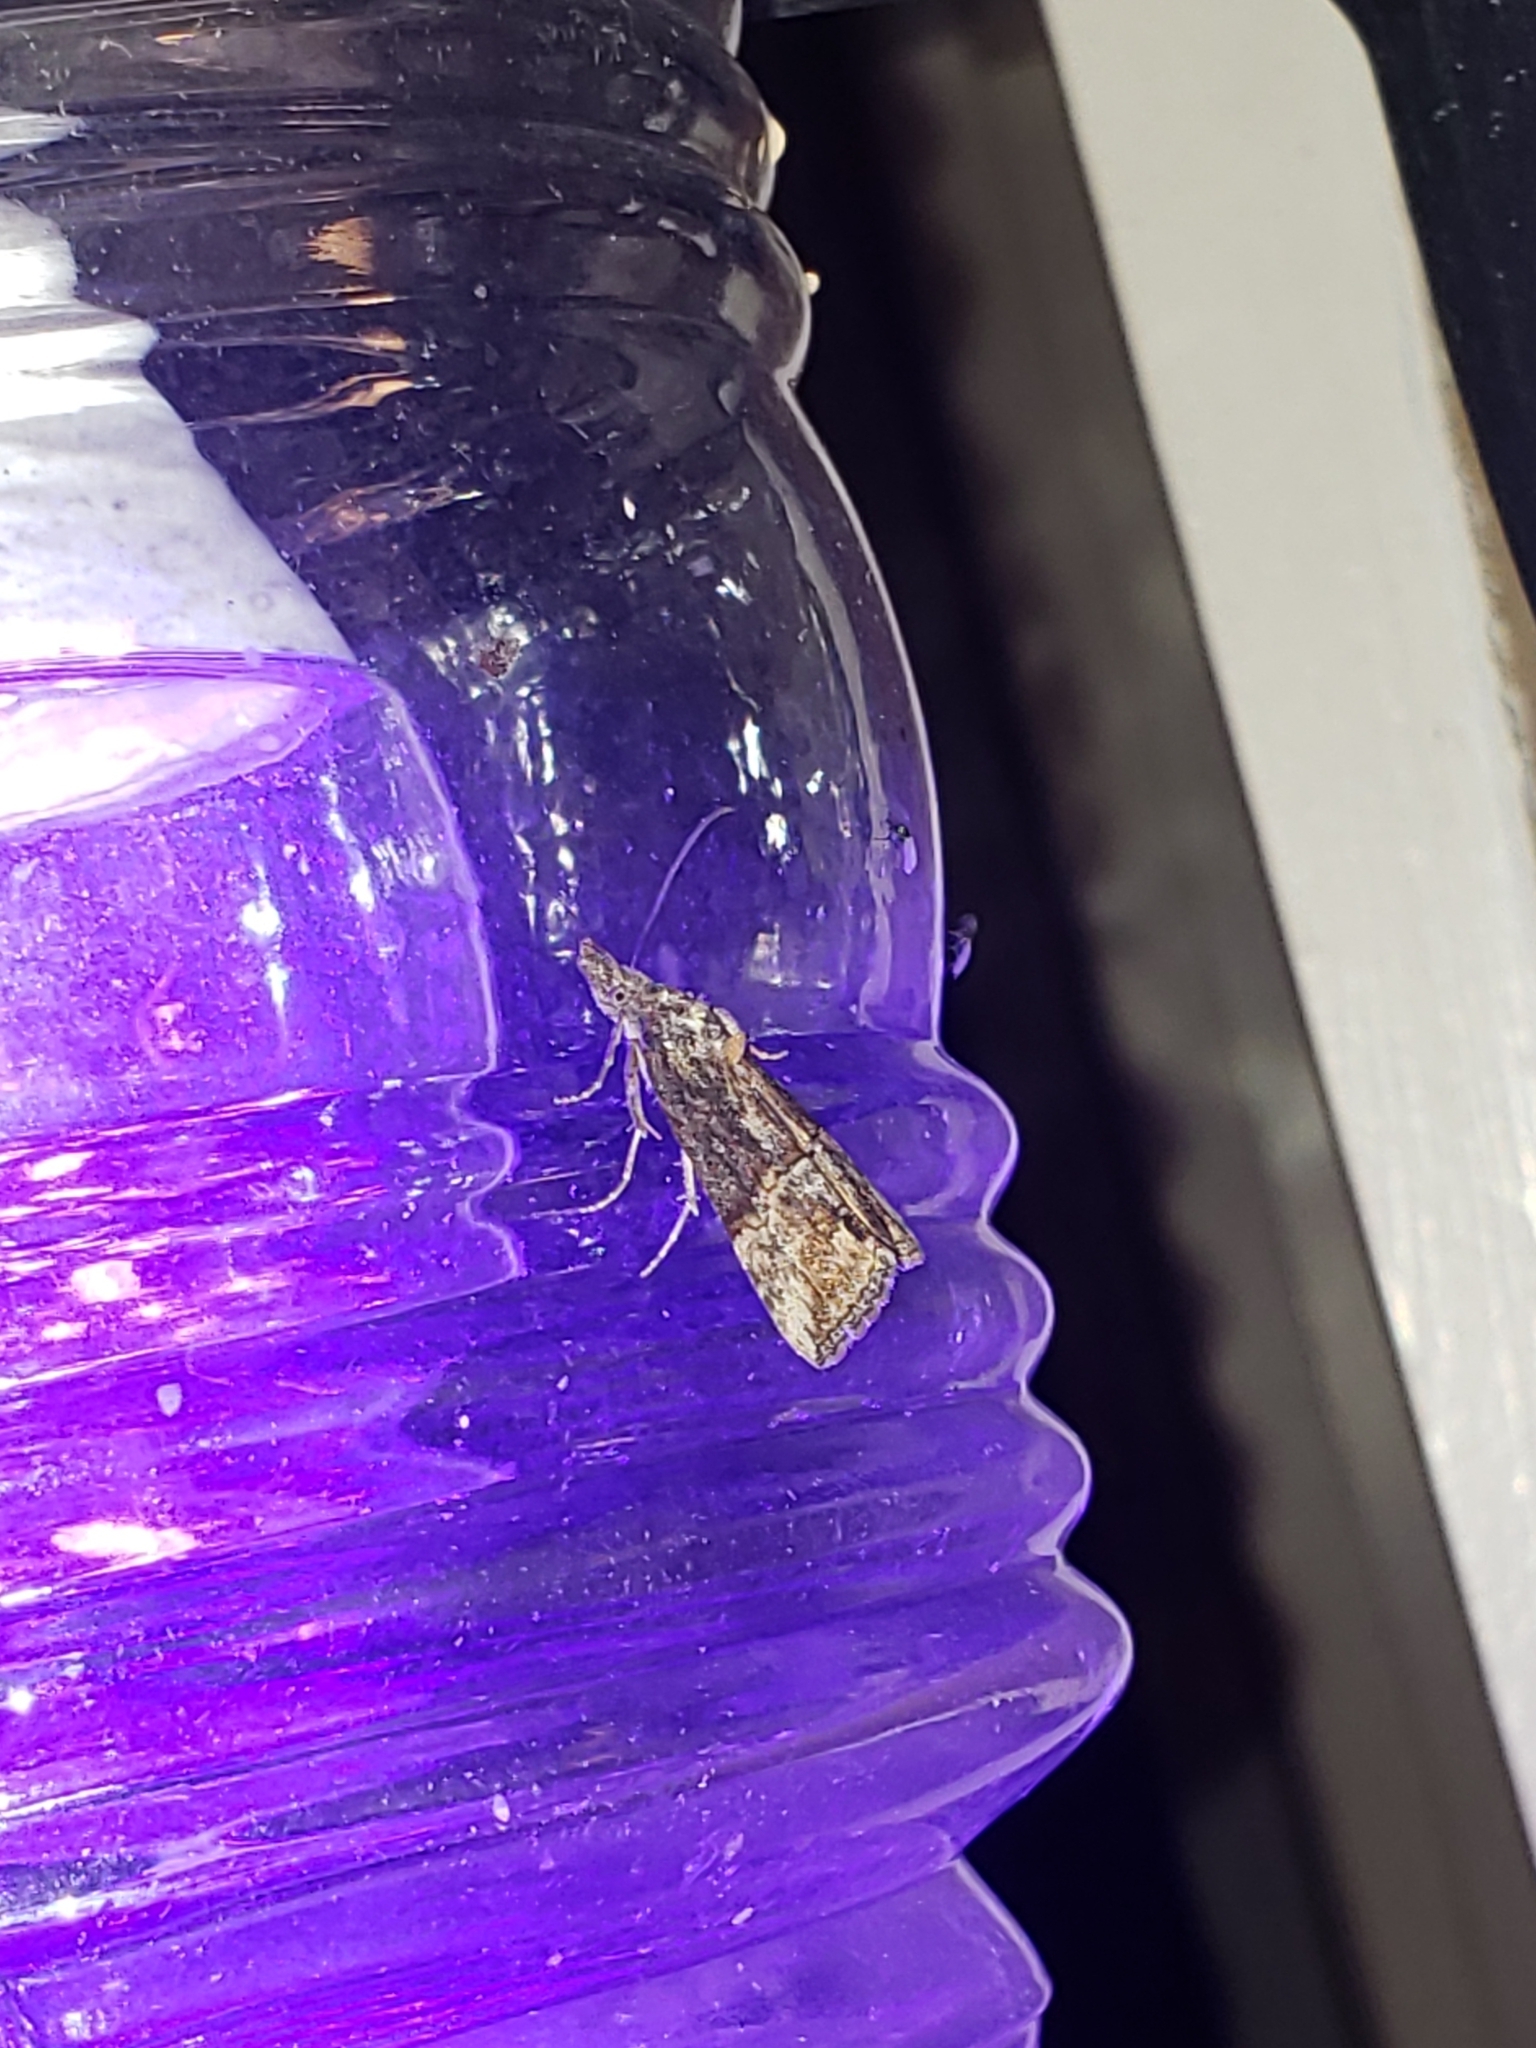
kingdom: Animalia
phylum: Arthropoda
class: Insecta
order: Lepidoptera
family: Erebidae
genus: Hypena
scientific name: Hypena scabra
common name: Green cloverworm
